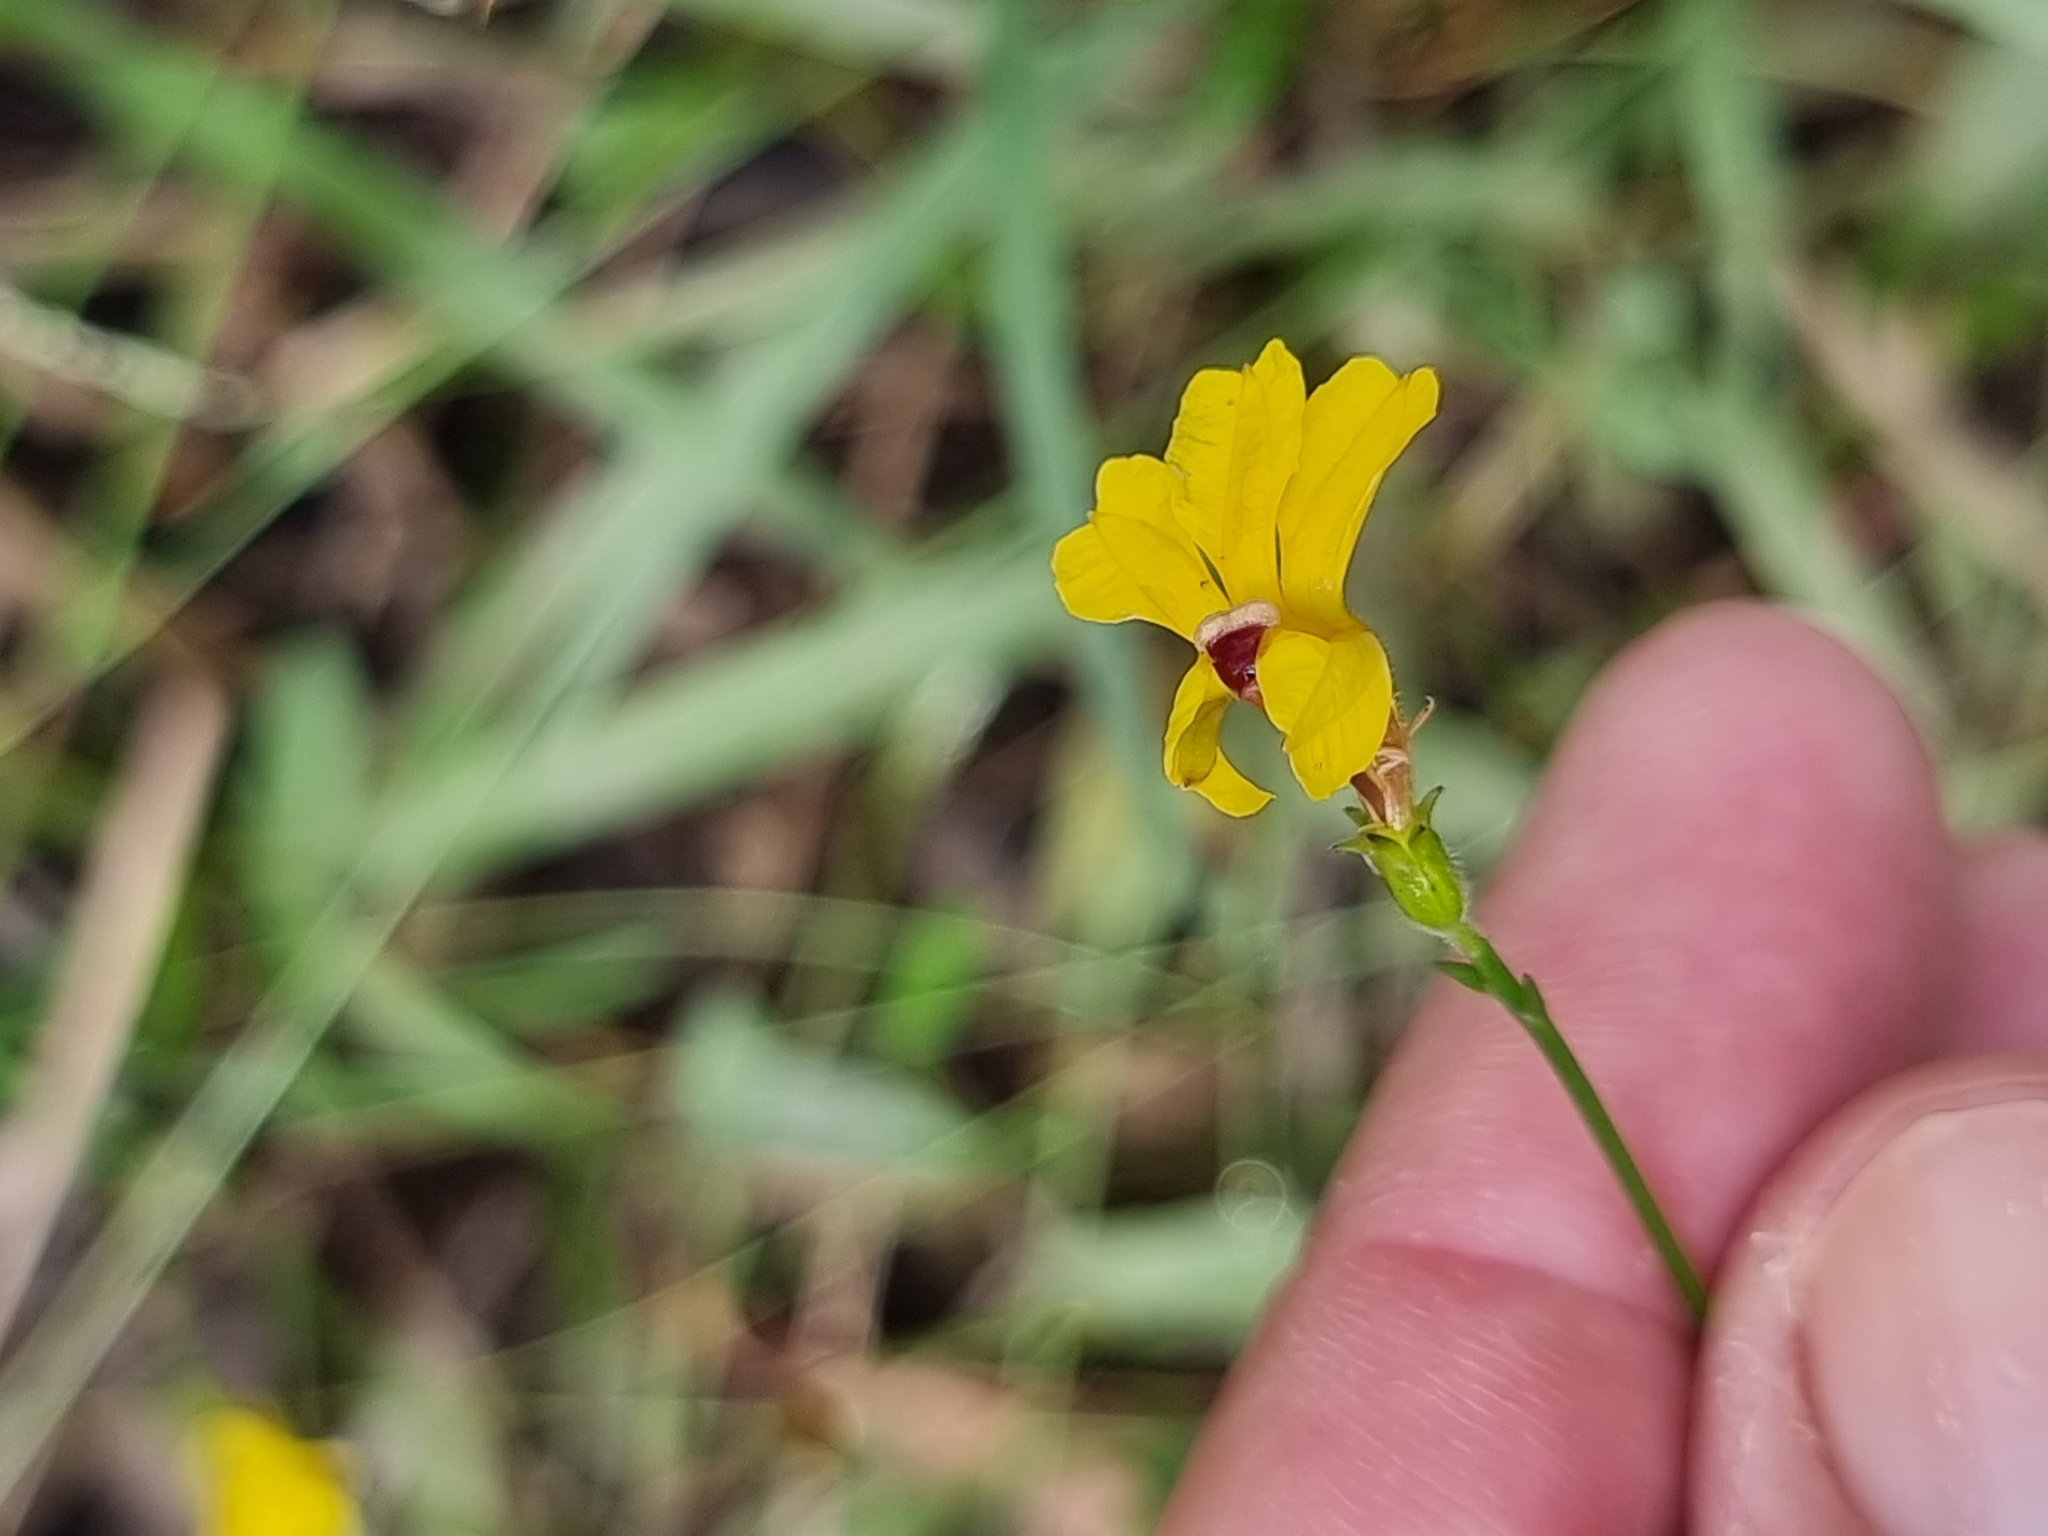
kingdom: Plantae
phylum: Tracheophyta
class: Magnoliopsida
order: Asterales
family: Goodeniaceae
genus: Goodenia
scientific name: Goodenia paniculata
